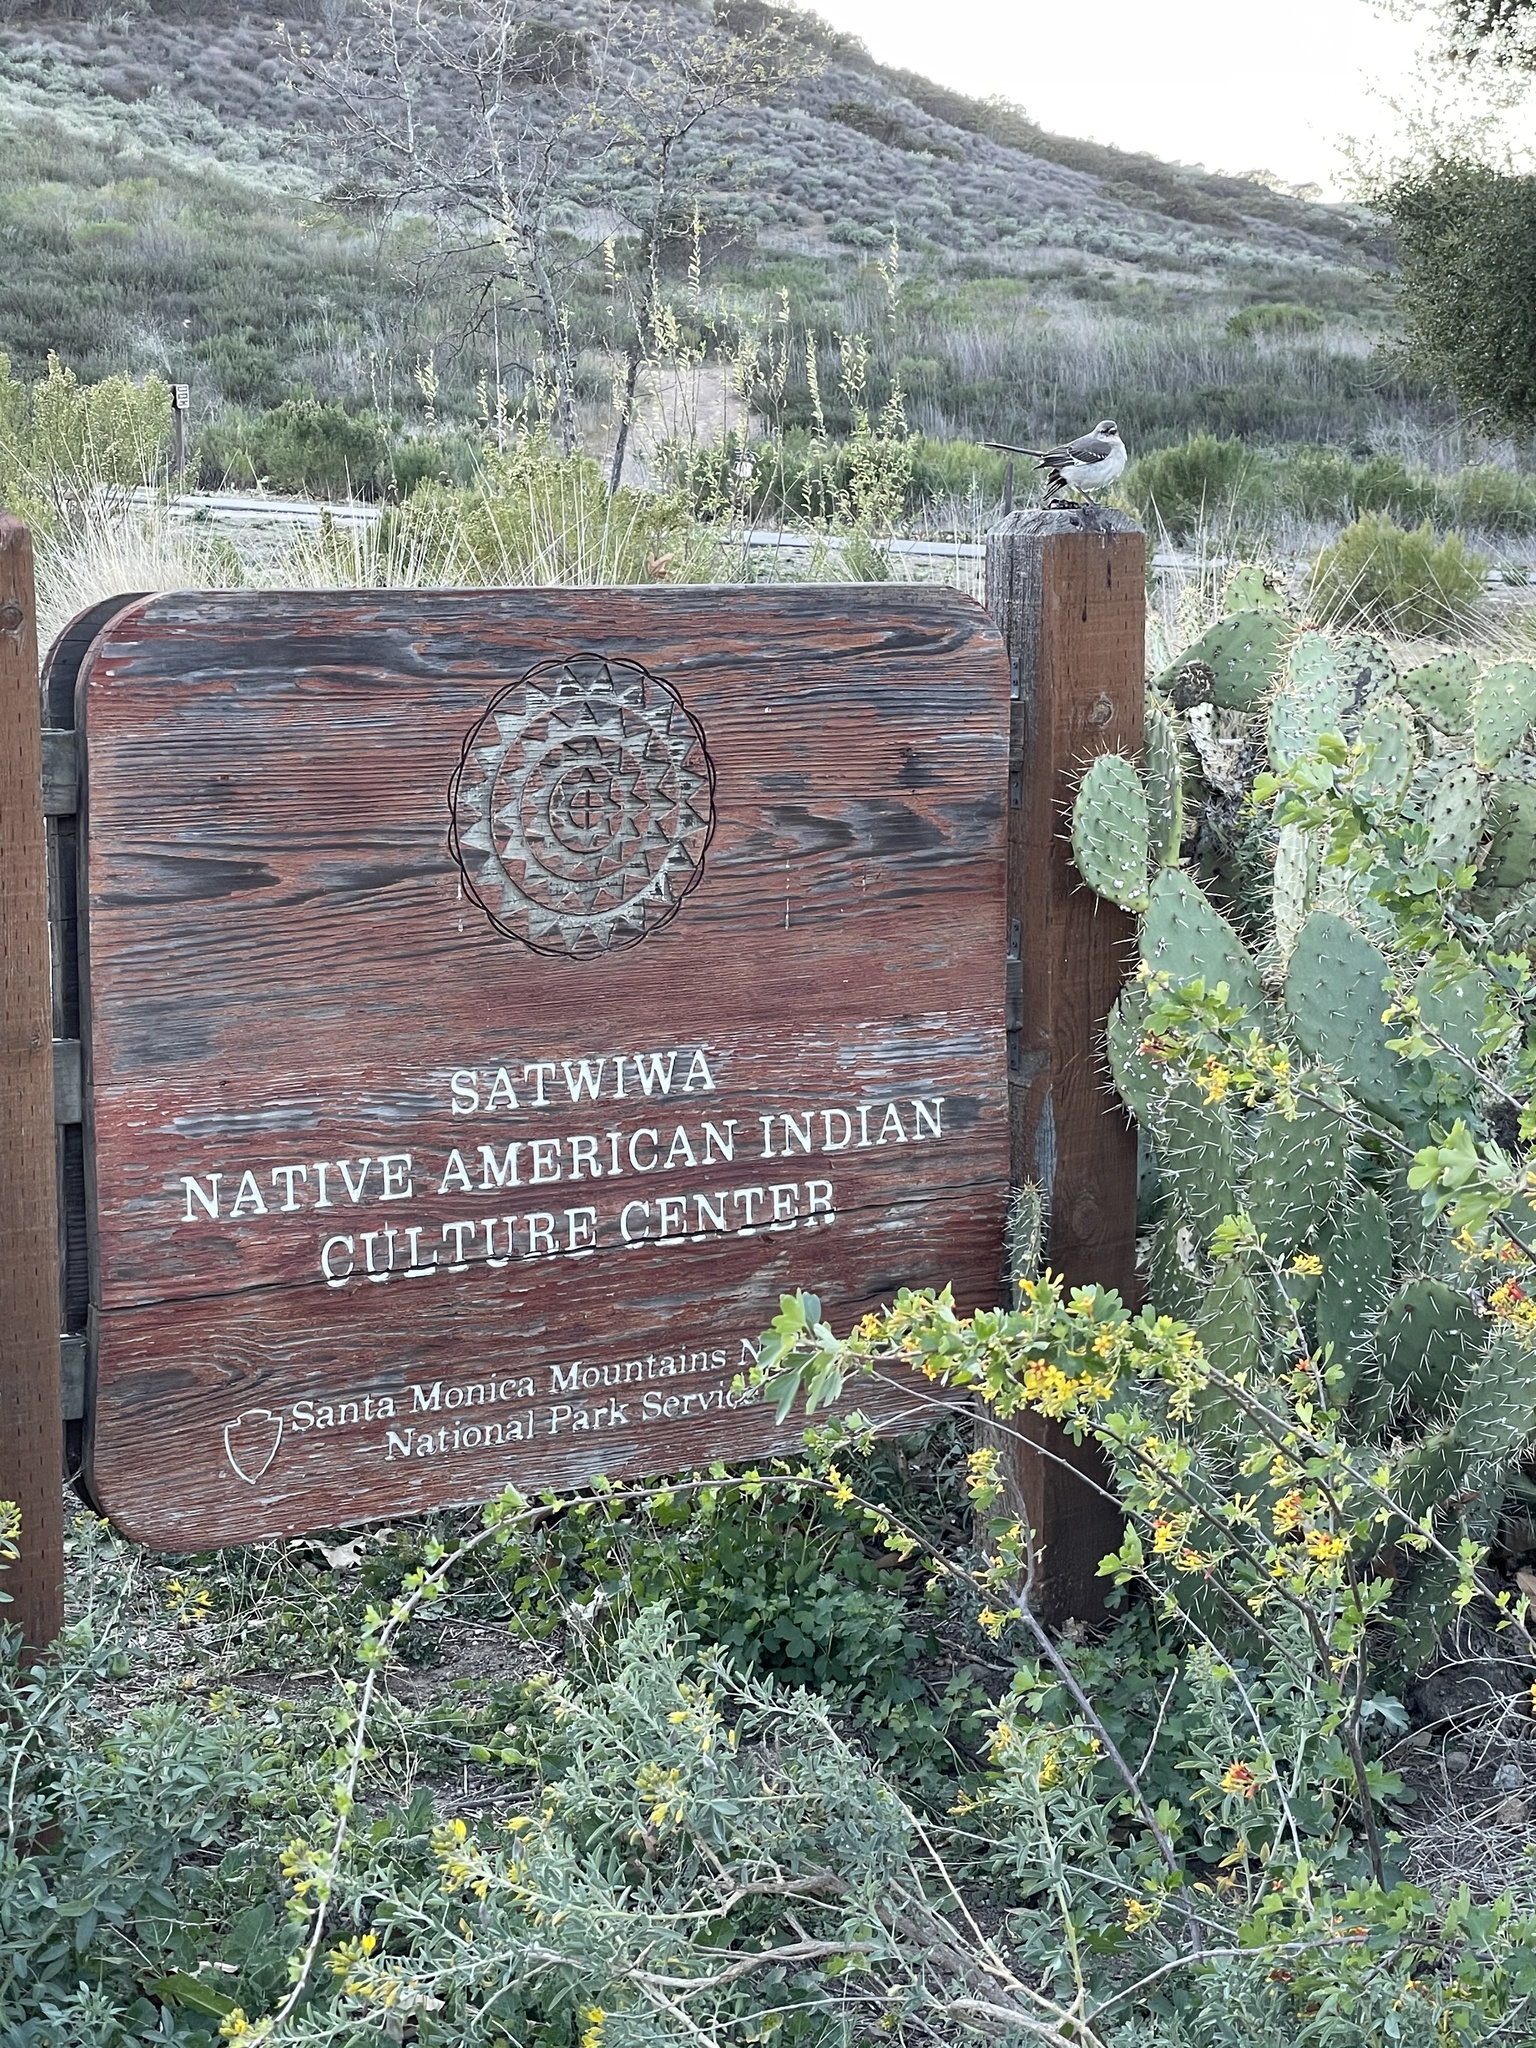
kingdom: Animalia
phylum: Chordata
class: Aves
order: Passeriformes
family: Mimidae
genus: Mimus
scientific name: Mimus polyglottos
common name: Northern mockingbird
